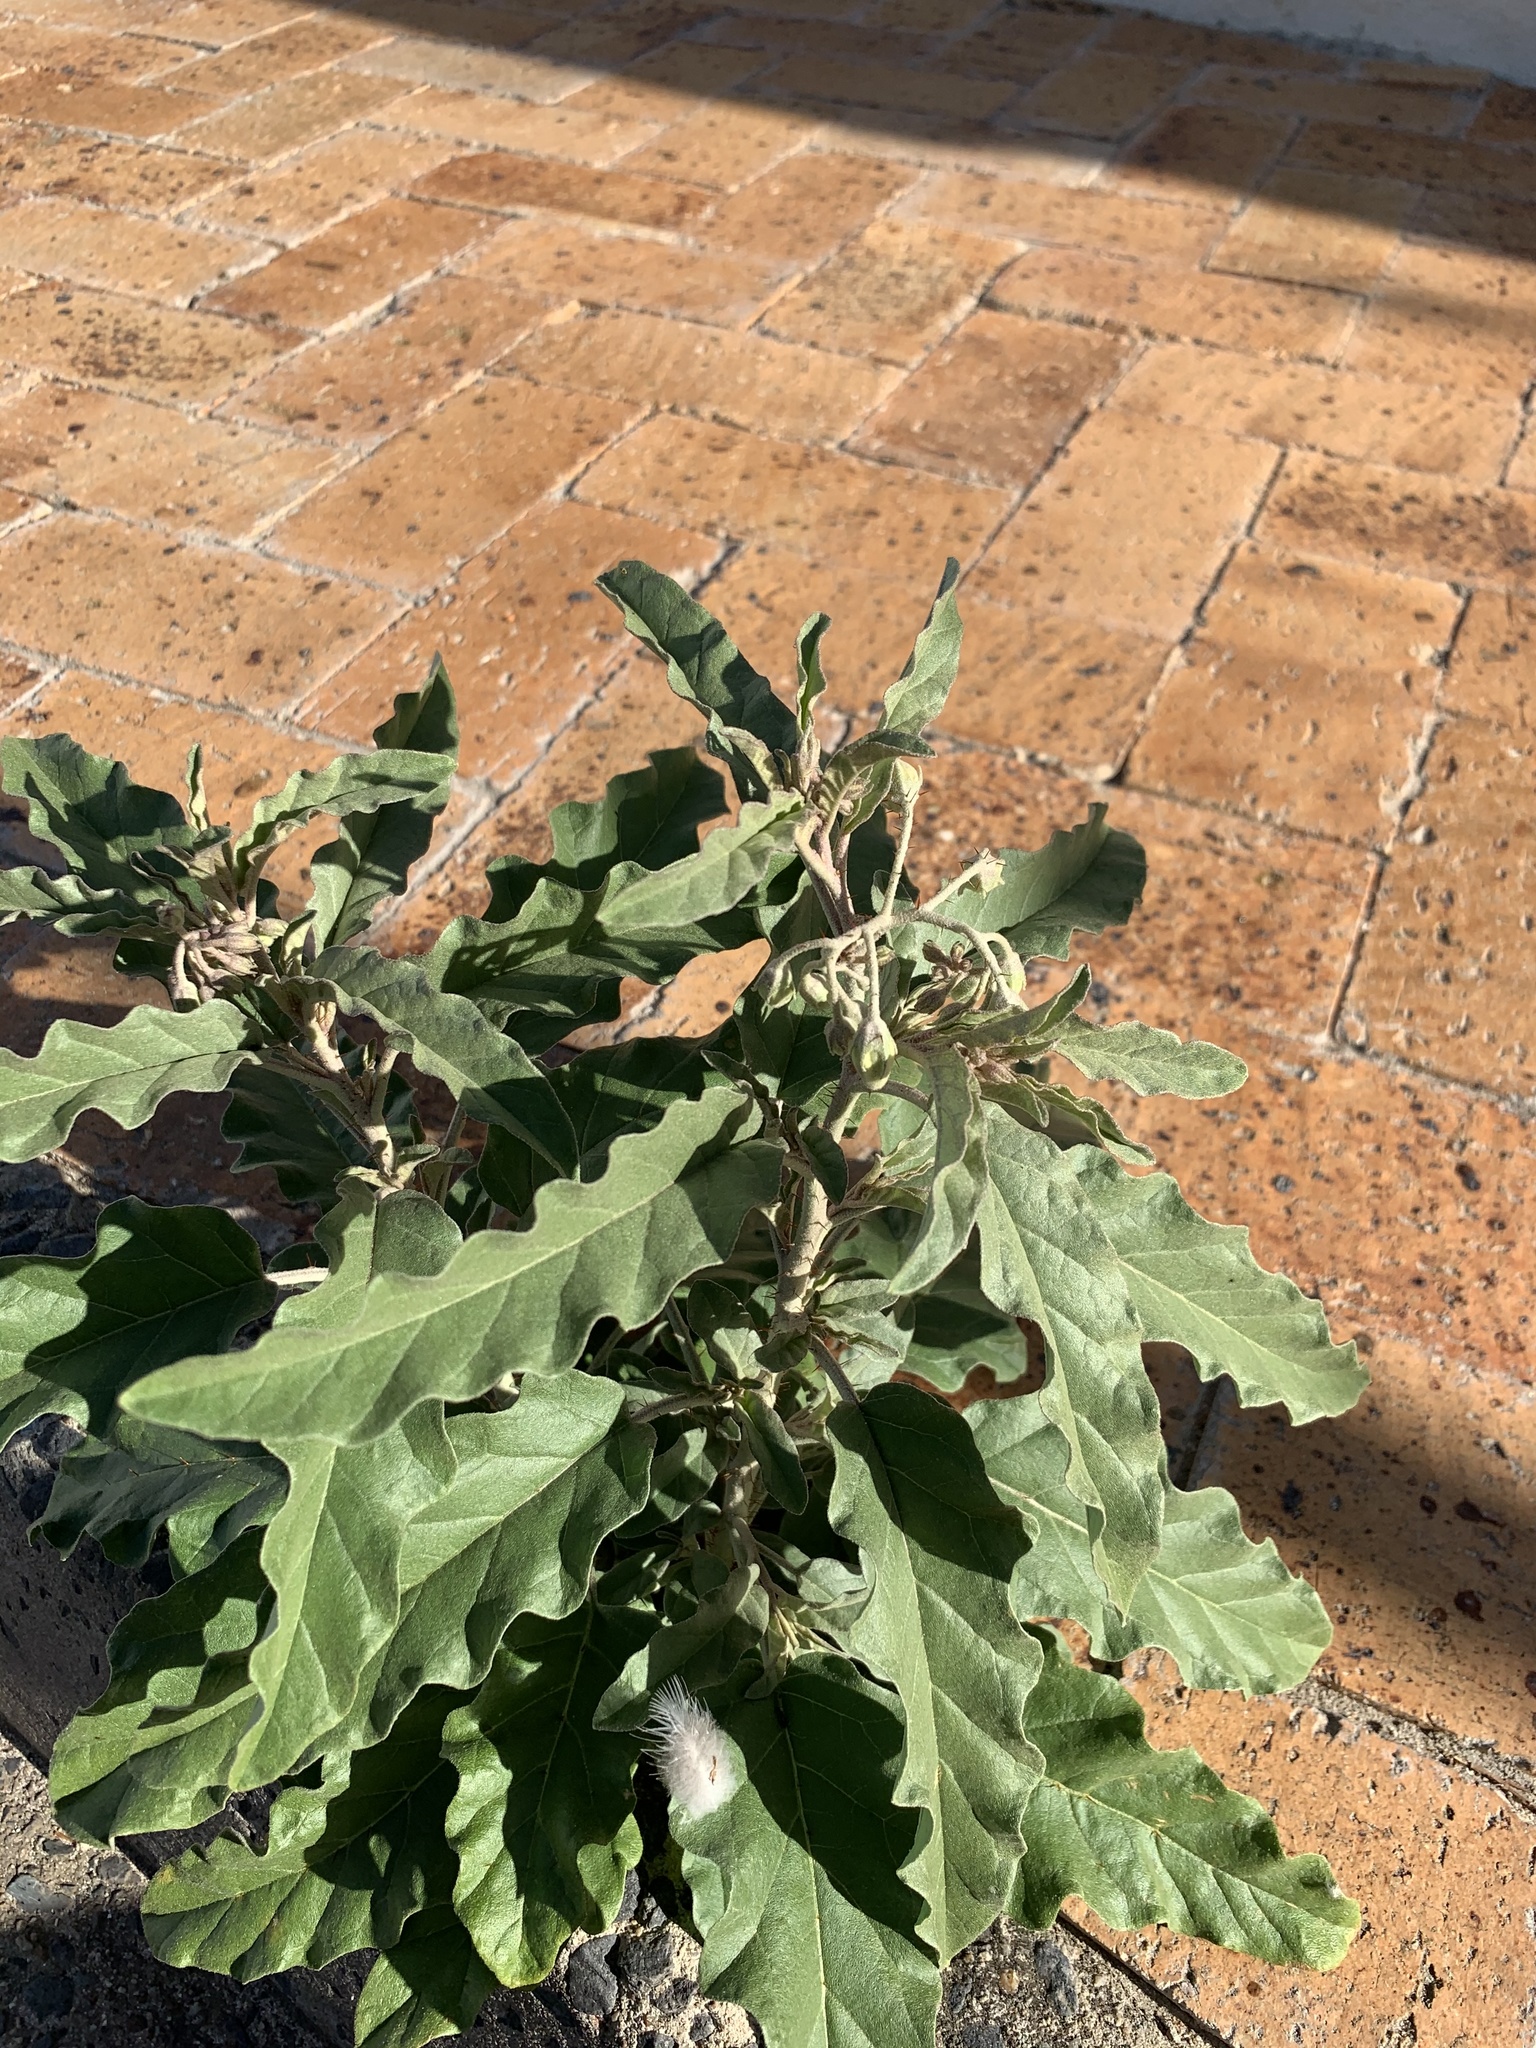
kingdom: Plantae
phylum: Tracheophyta
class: Magnoliopsida
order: Solanales
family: Solanaceae
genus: Solanum
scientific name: Solanum elaeagnifolium
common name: Silverleaf nightshade
